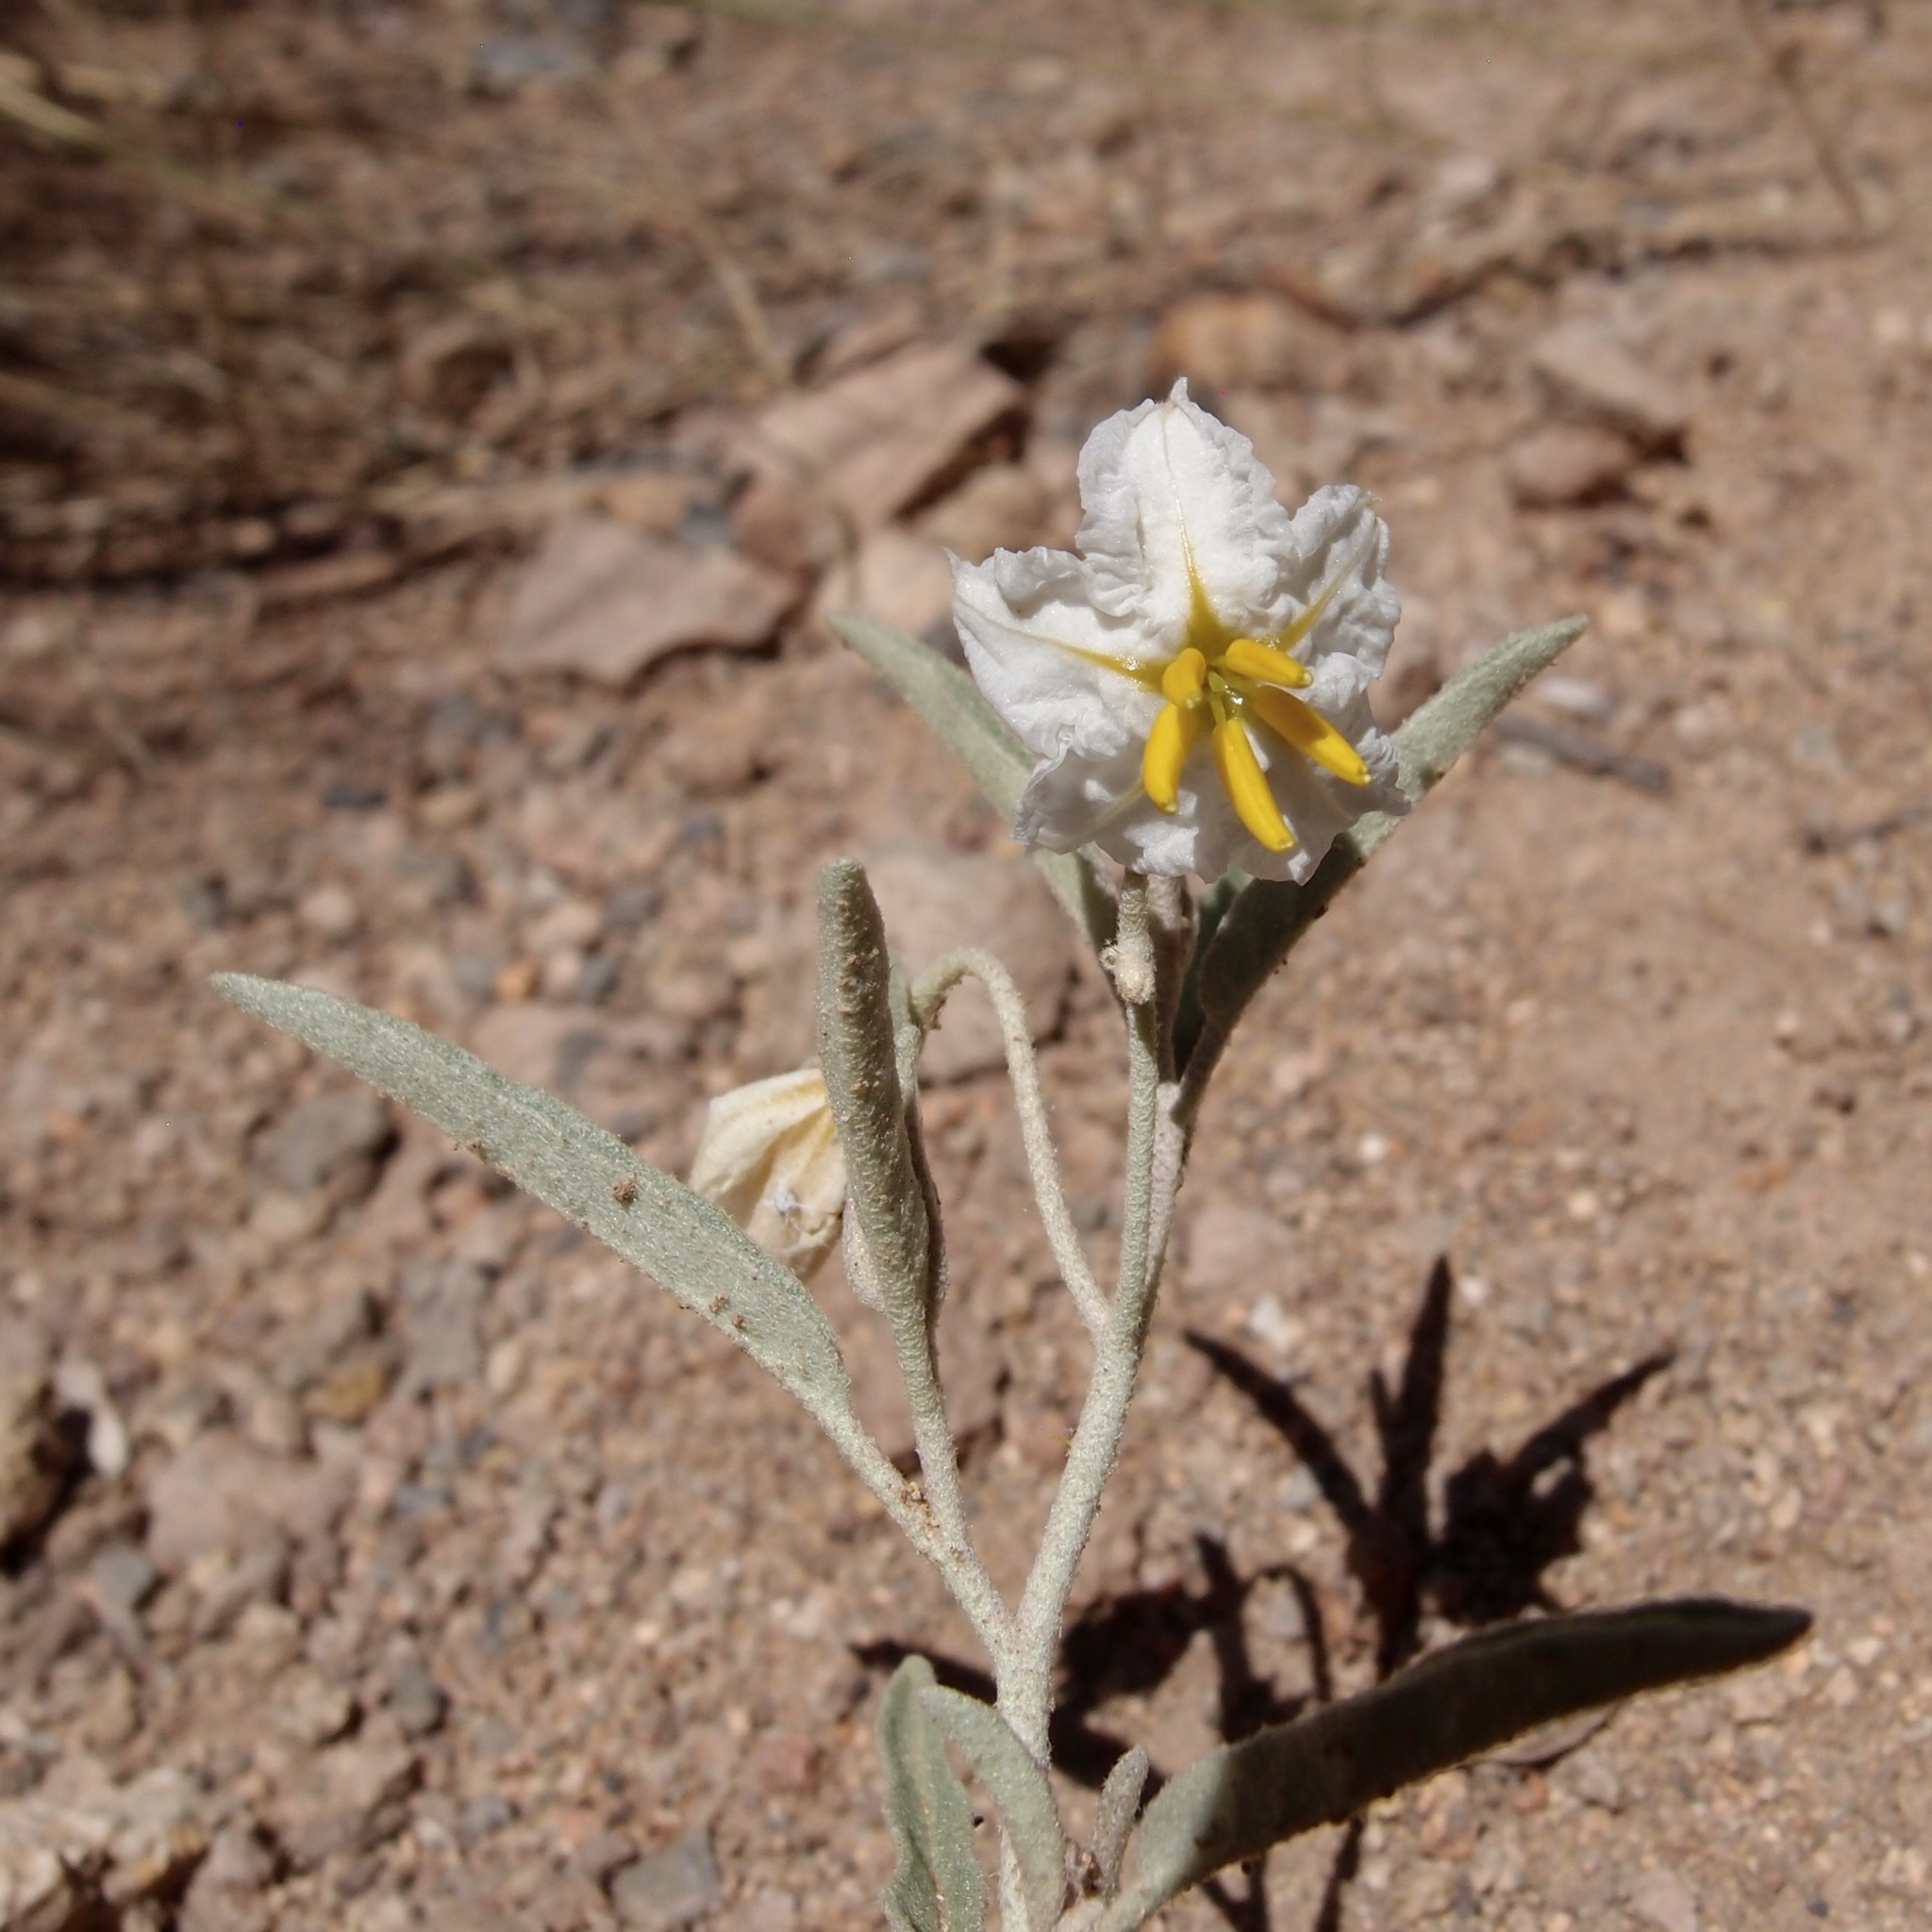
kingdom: Plantae
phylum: Tracheophyta
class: Magnoliopsida
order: Solanales
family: Solanaceae
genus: Solanum
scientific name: Solanum elaeagnifolium
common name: Silverleaf nightshade
